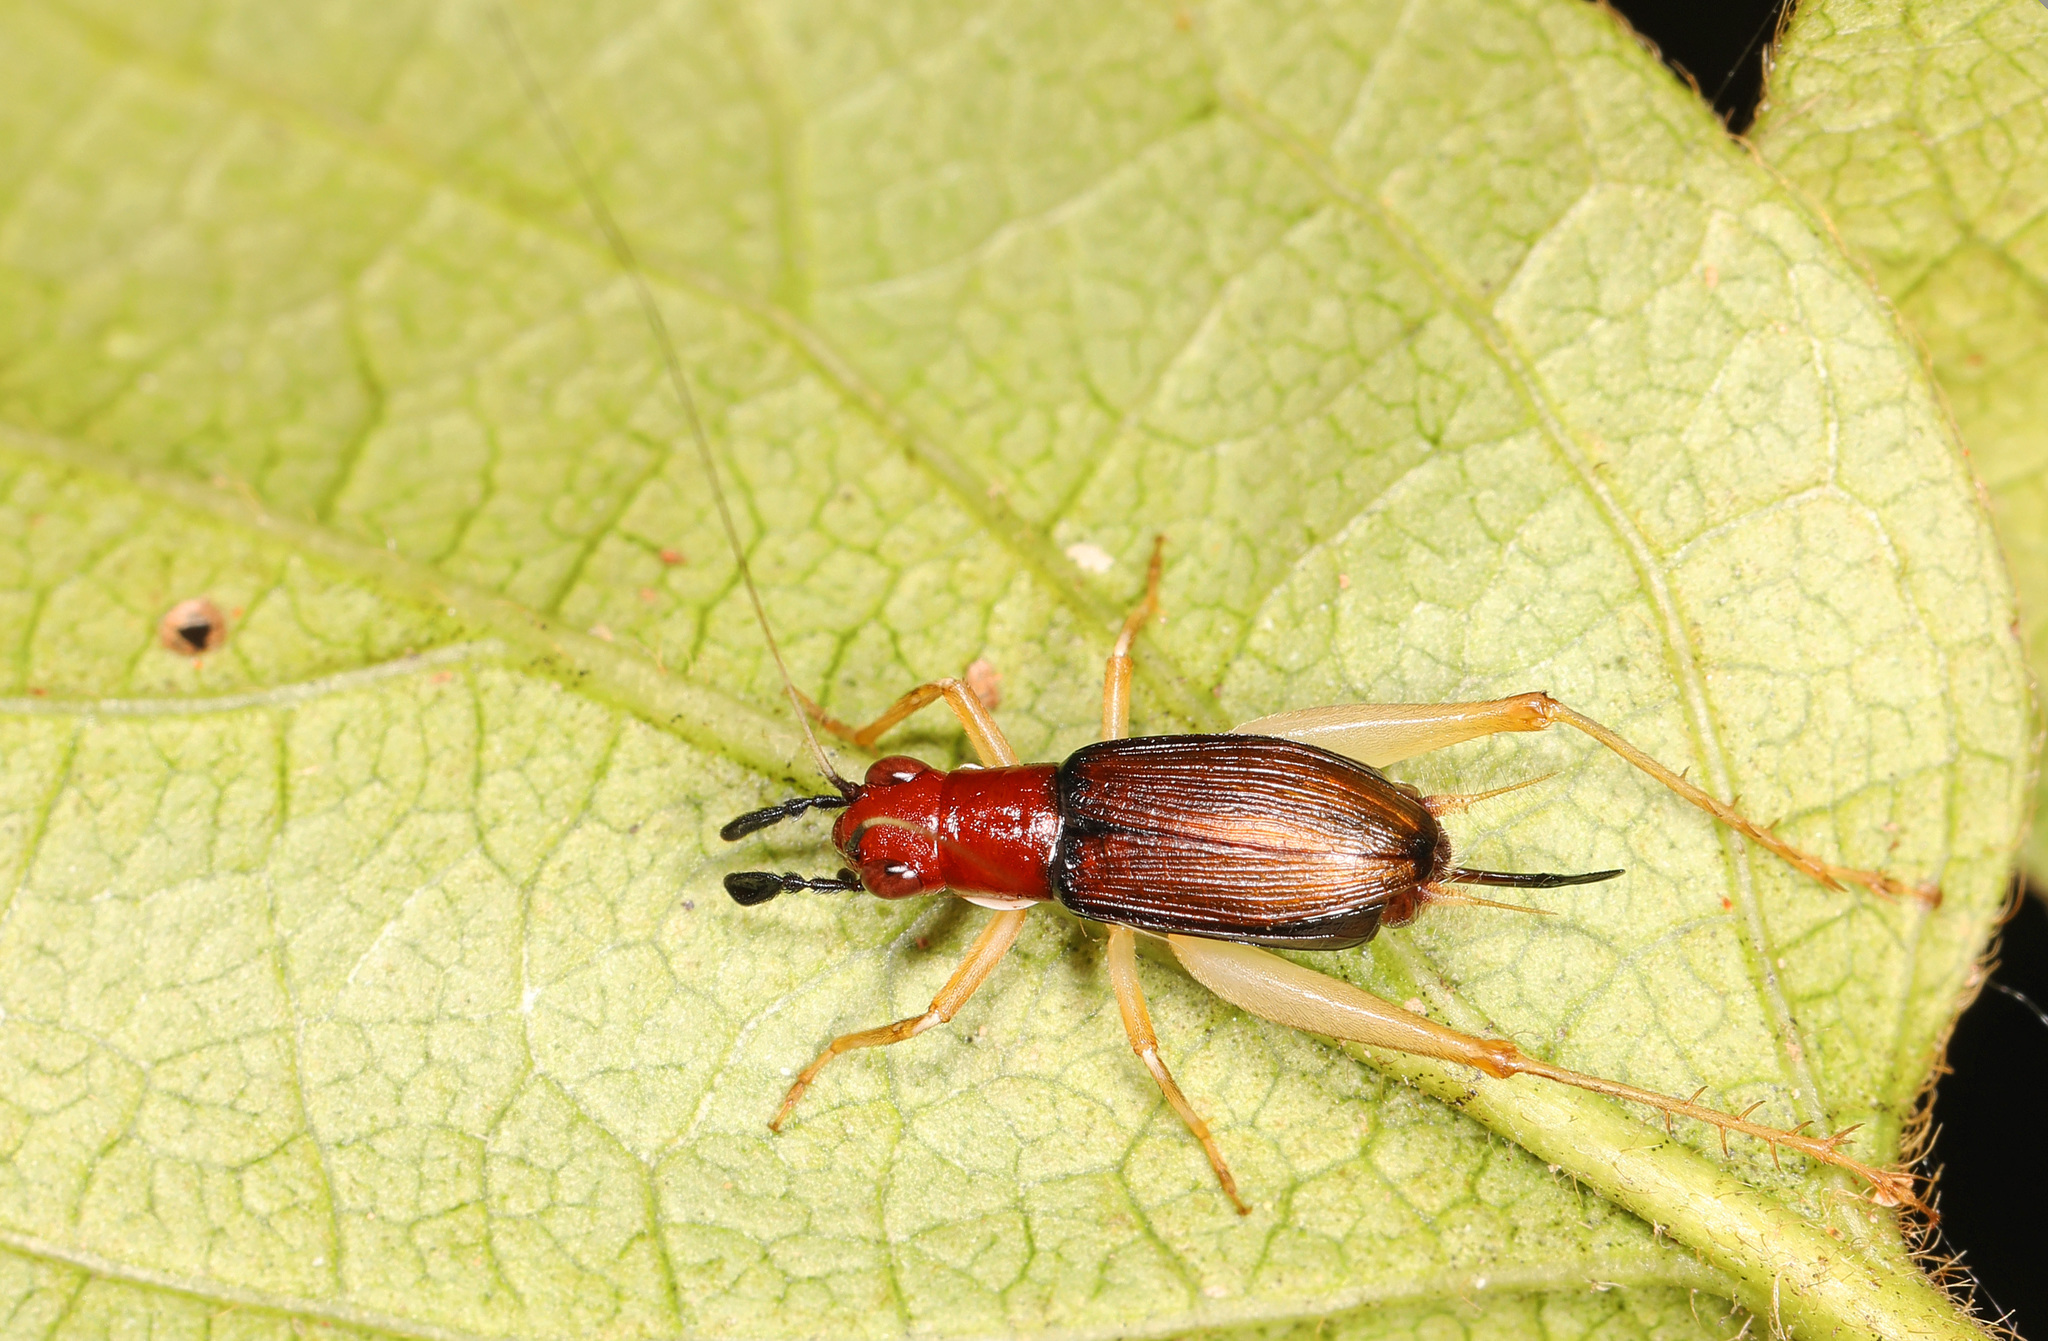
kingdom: Animalia
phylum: Arthropoda
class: Insecta
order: Orthoptera
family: Trigonidiidae
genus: Phyllopalpus
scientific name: Phyllopalpus pulchellus
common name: Handsome trig
